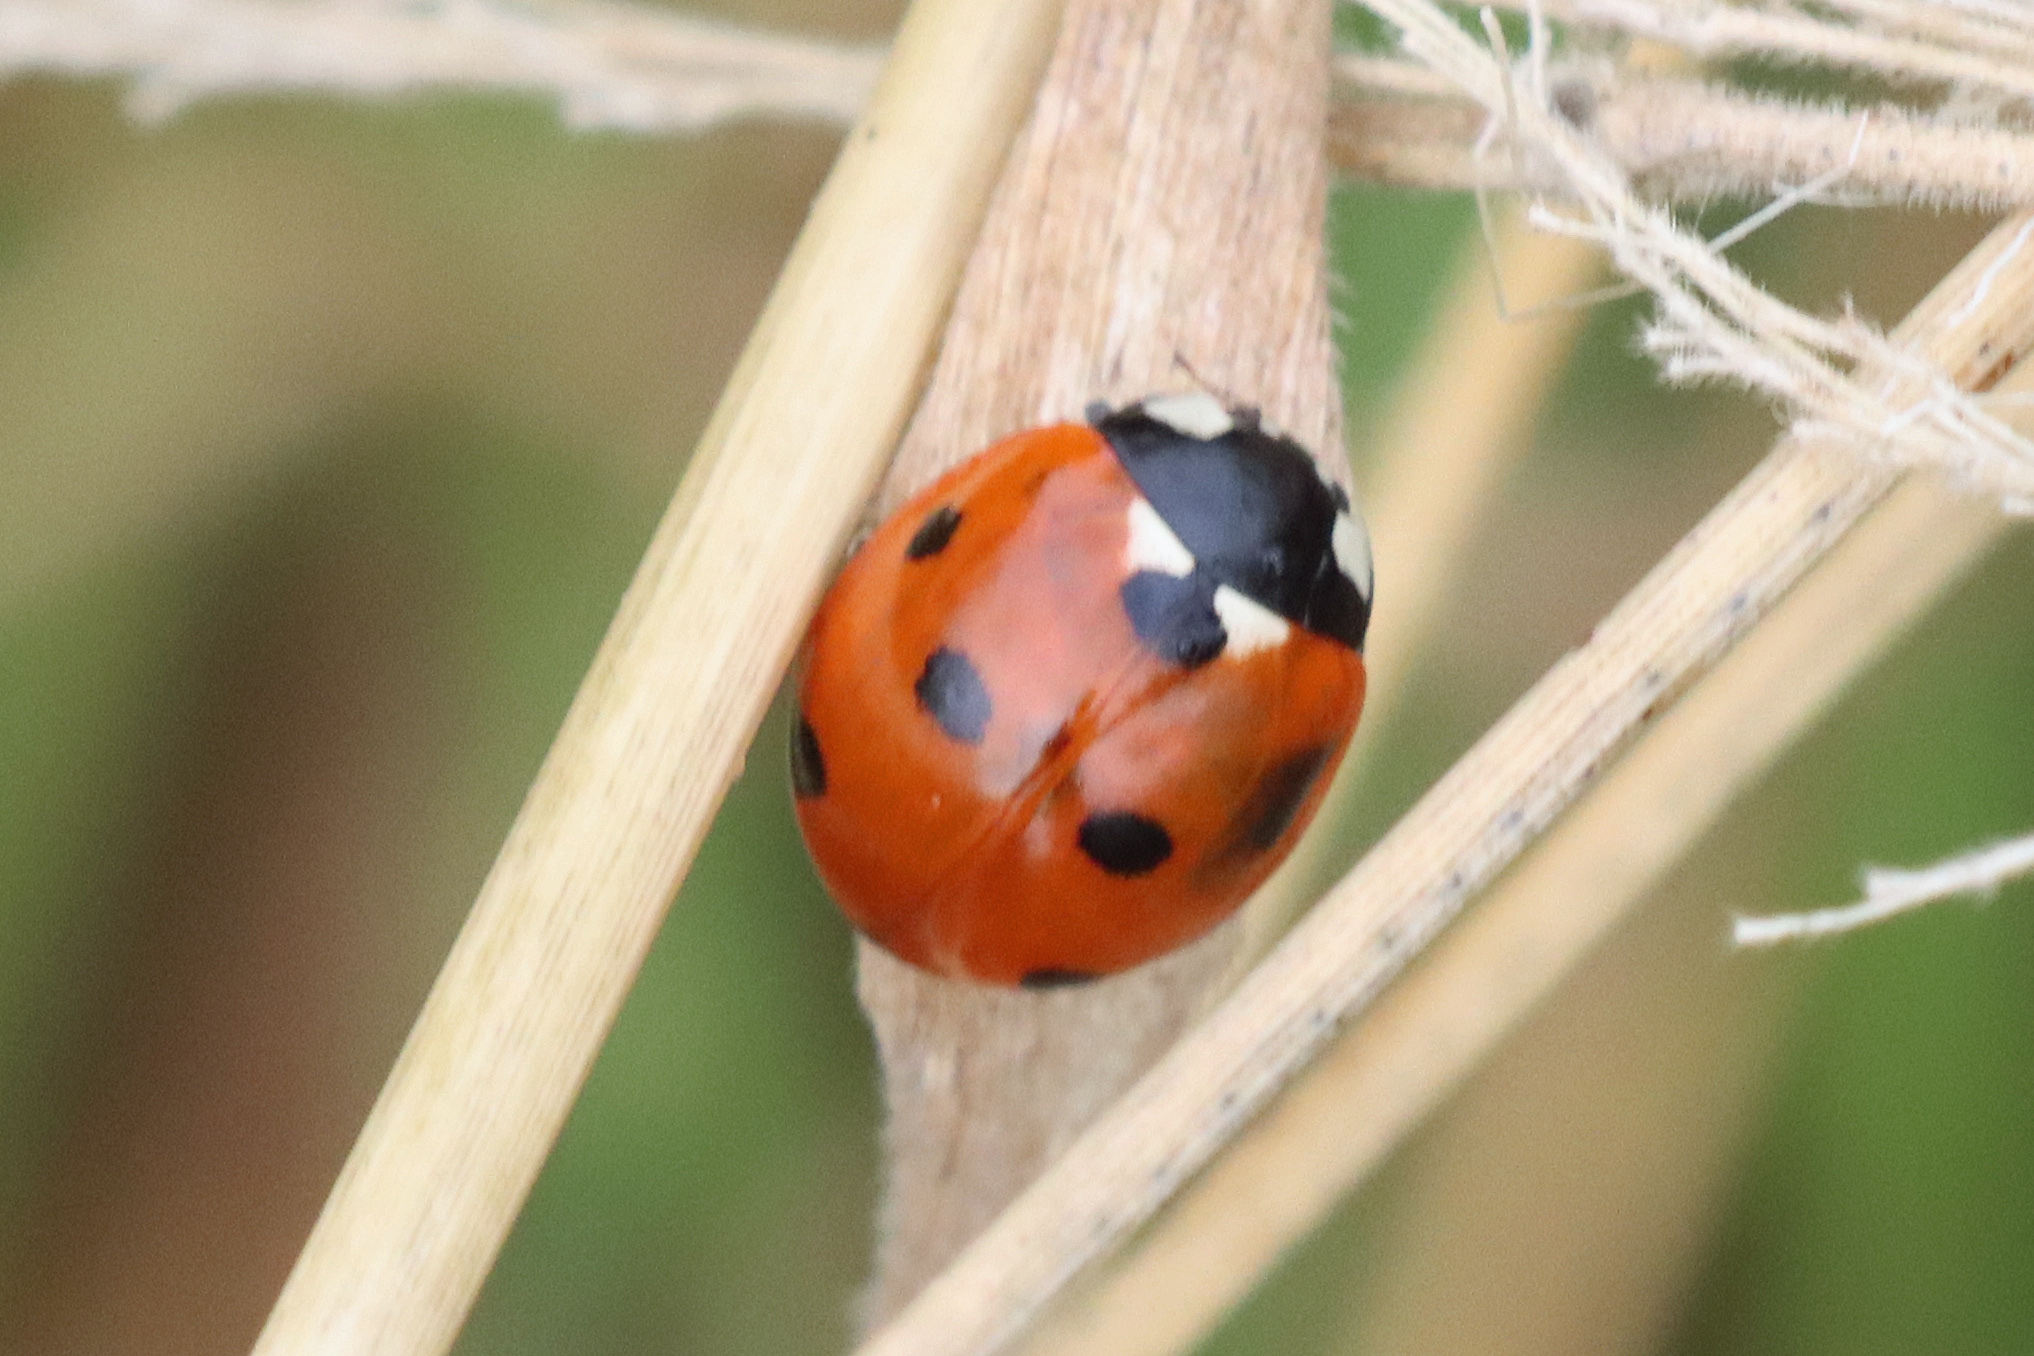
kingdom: Animalia
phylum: Arthropoda
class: Insecta
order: Coleoptera
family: Coccinellidae
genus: Coccinella
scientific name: Coccinella septempunctata
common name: Sevenspotted lady beetle
